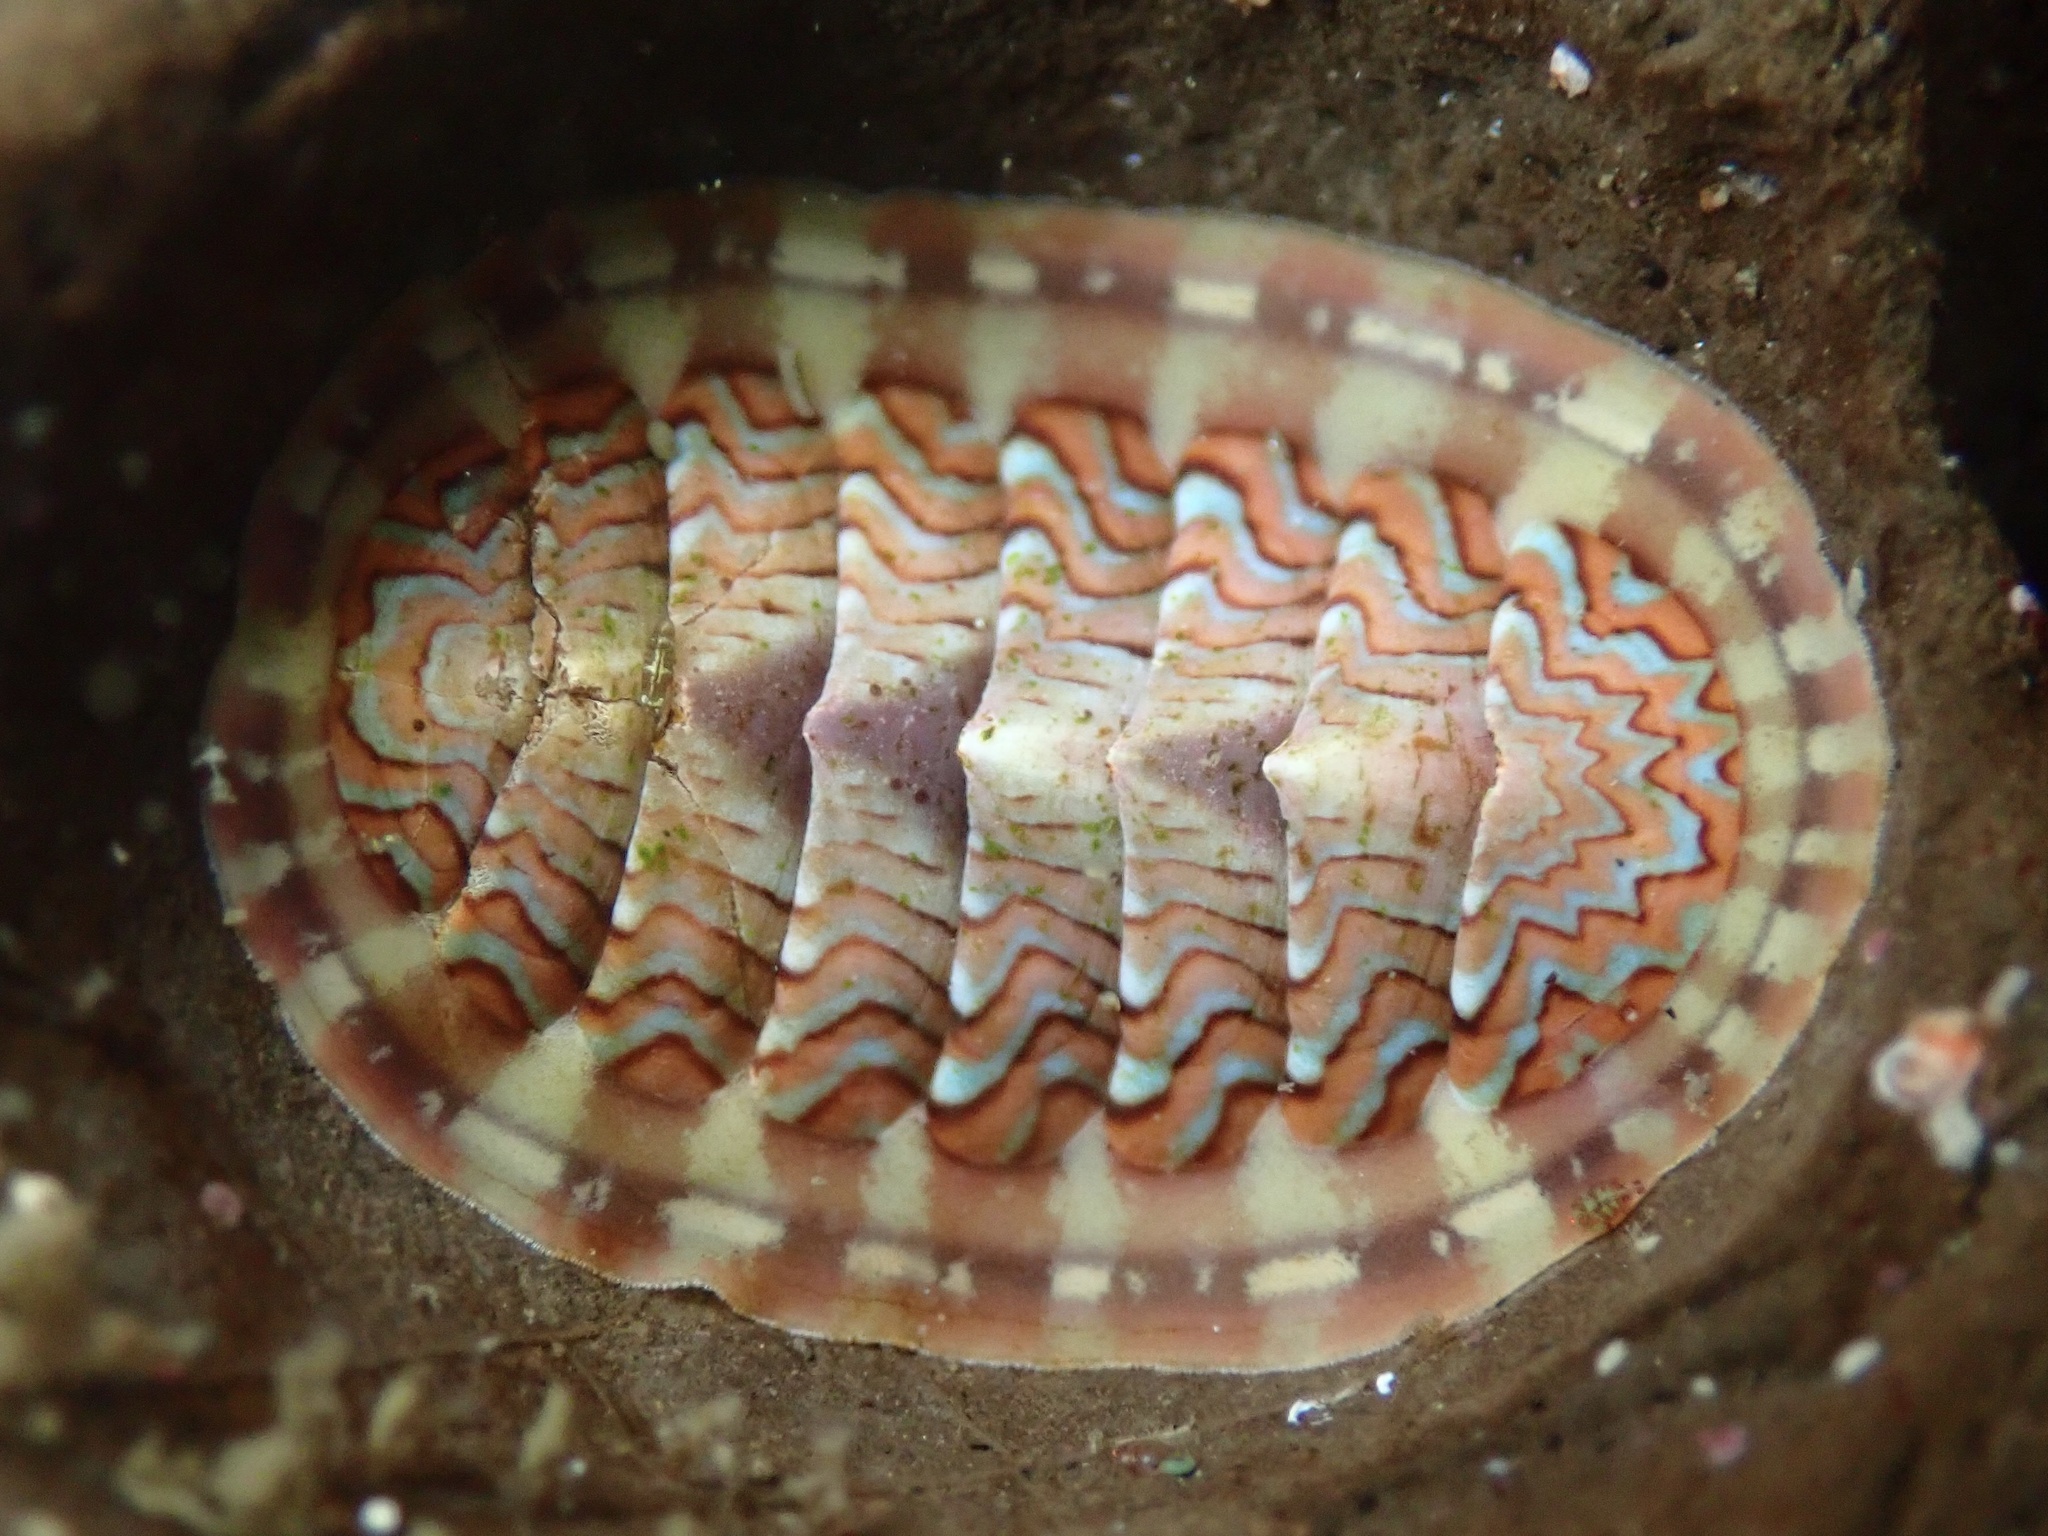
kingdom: Animalia
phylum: Mollusca
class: Polyplacophora
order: Chitonida
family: Tonicellidae
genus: Tonicella
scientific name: Tonicella lokii
